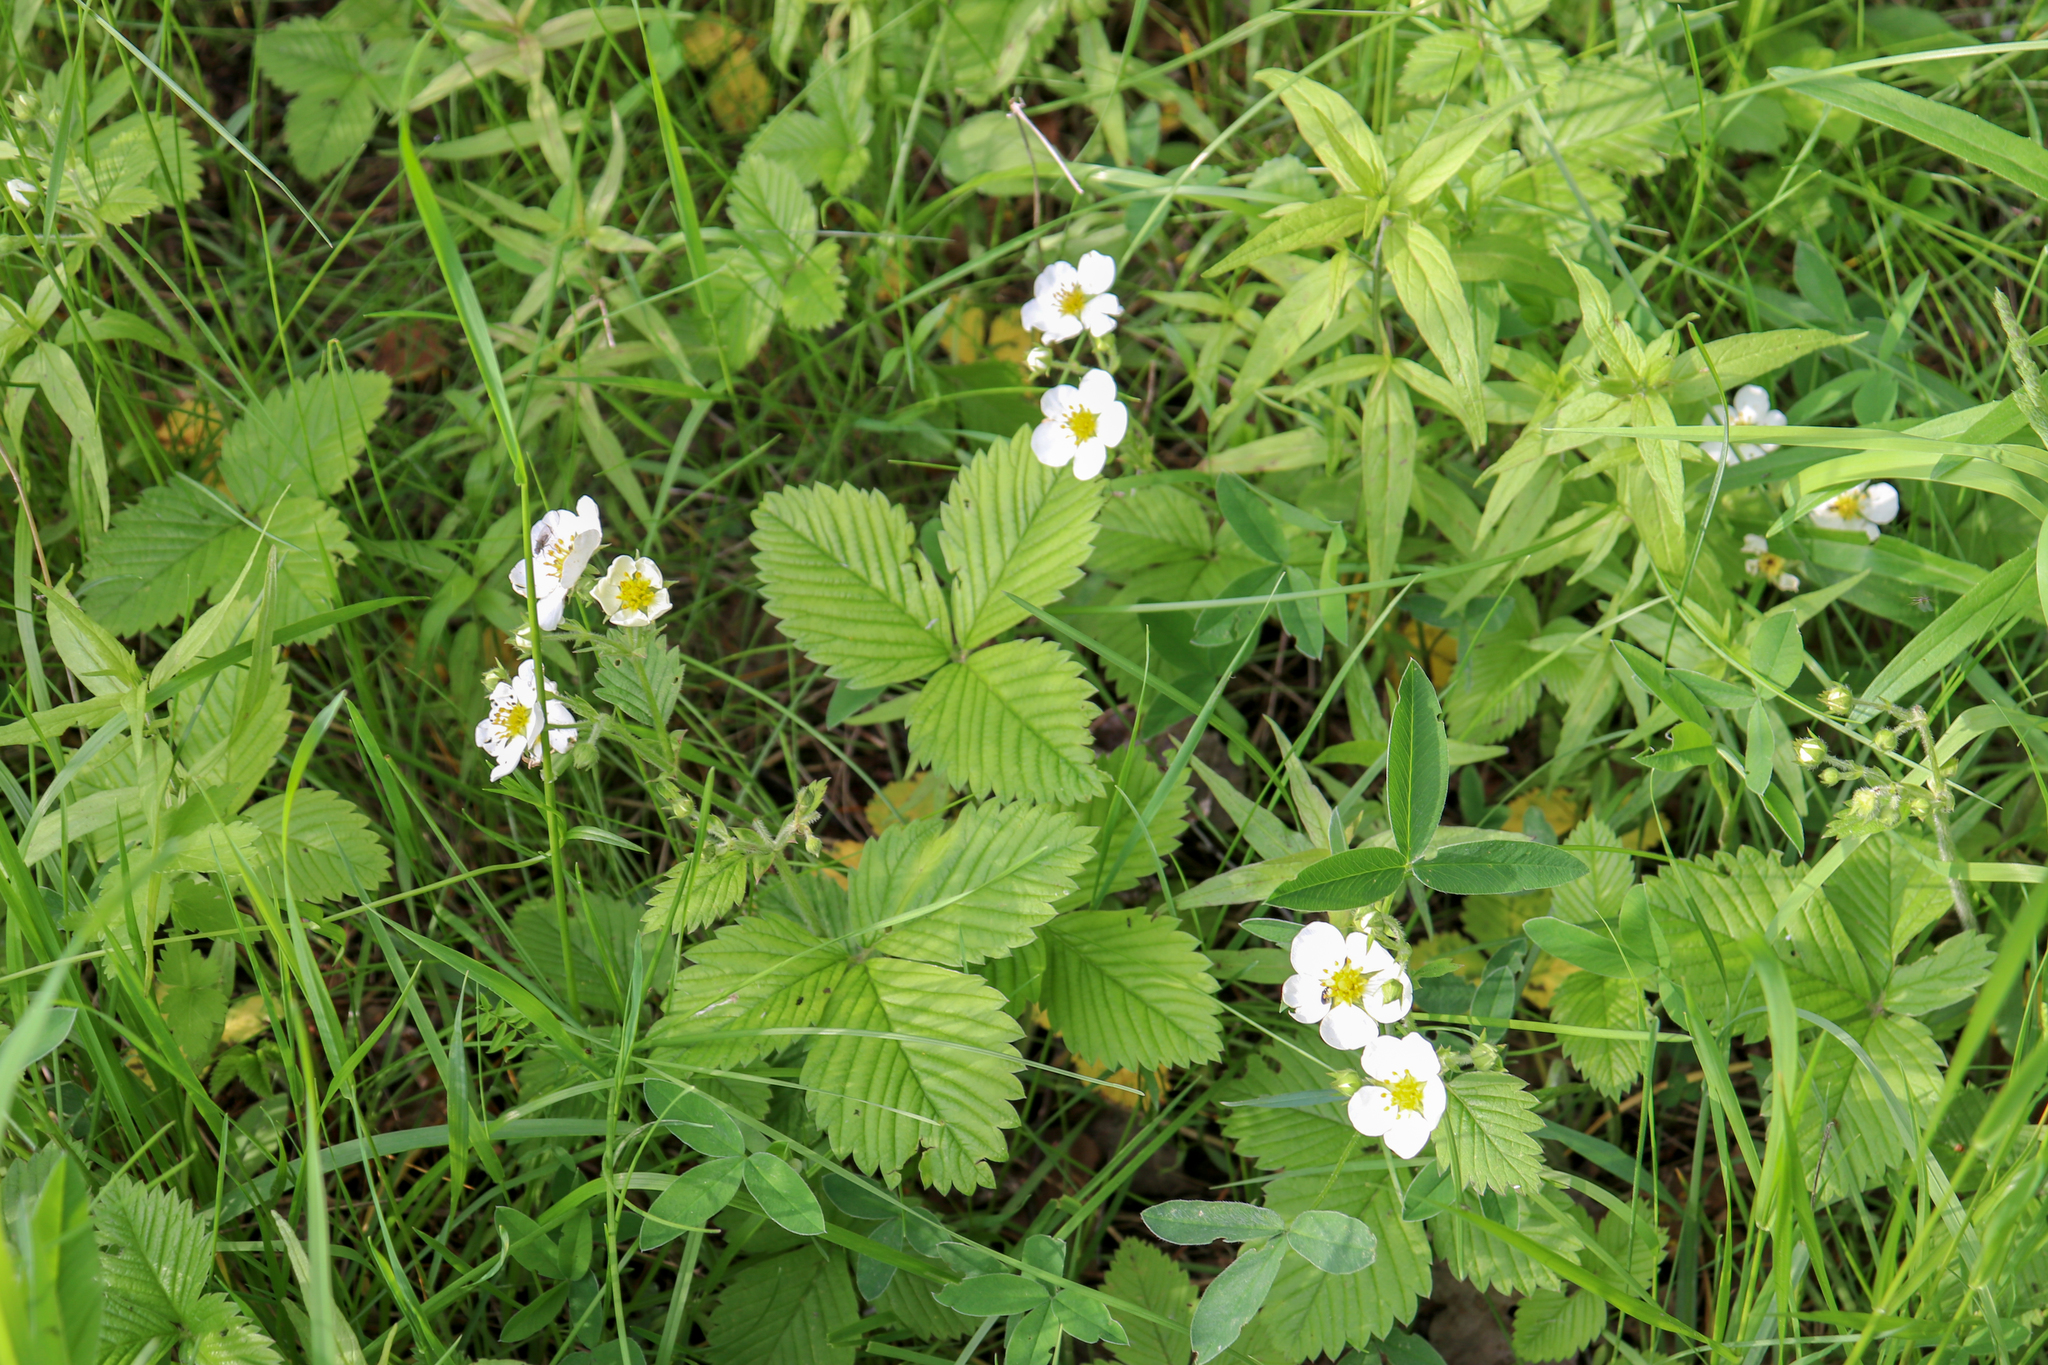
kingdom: Plantae
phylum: Tracheophyta
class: Magnoliopsida
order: Rosales
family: Rosaceae
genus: Fragaria
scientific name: Fragaria moschata
